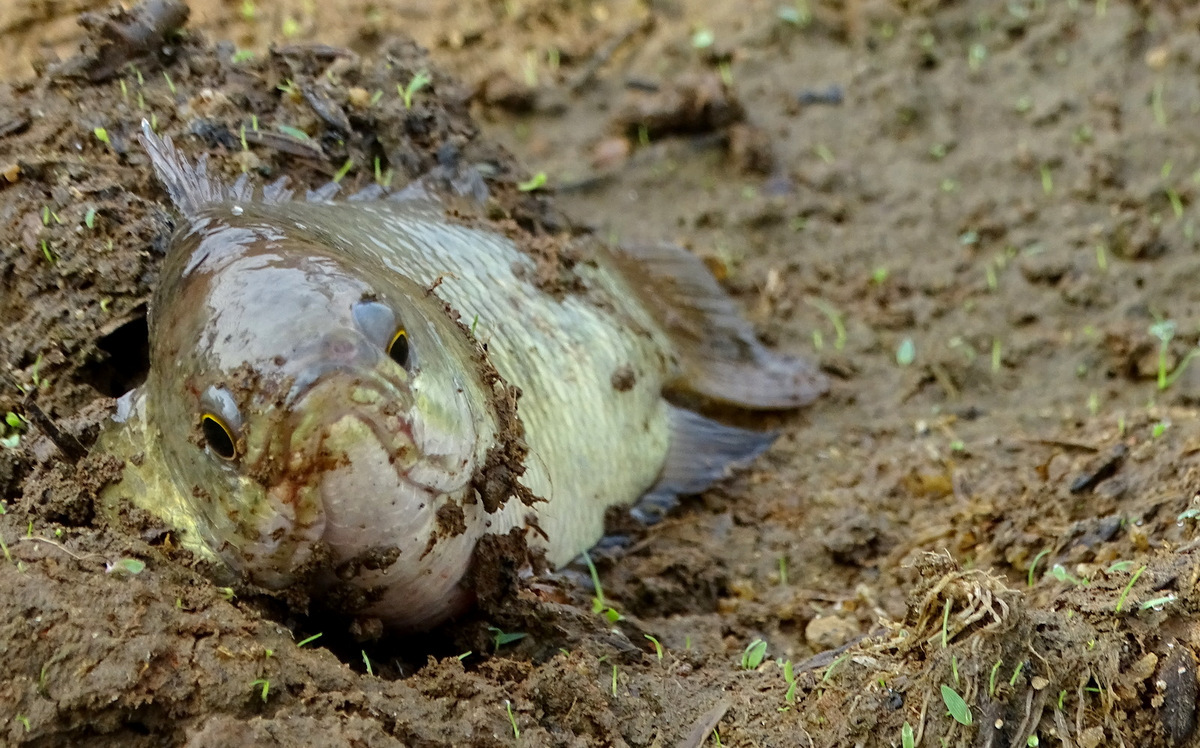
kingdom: Animalia
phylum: Chordata
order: Perciformes
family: Anabantidae
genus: Anabas
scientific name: Anabas testudineus
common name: Climbing perch
